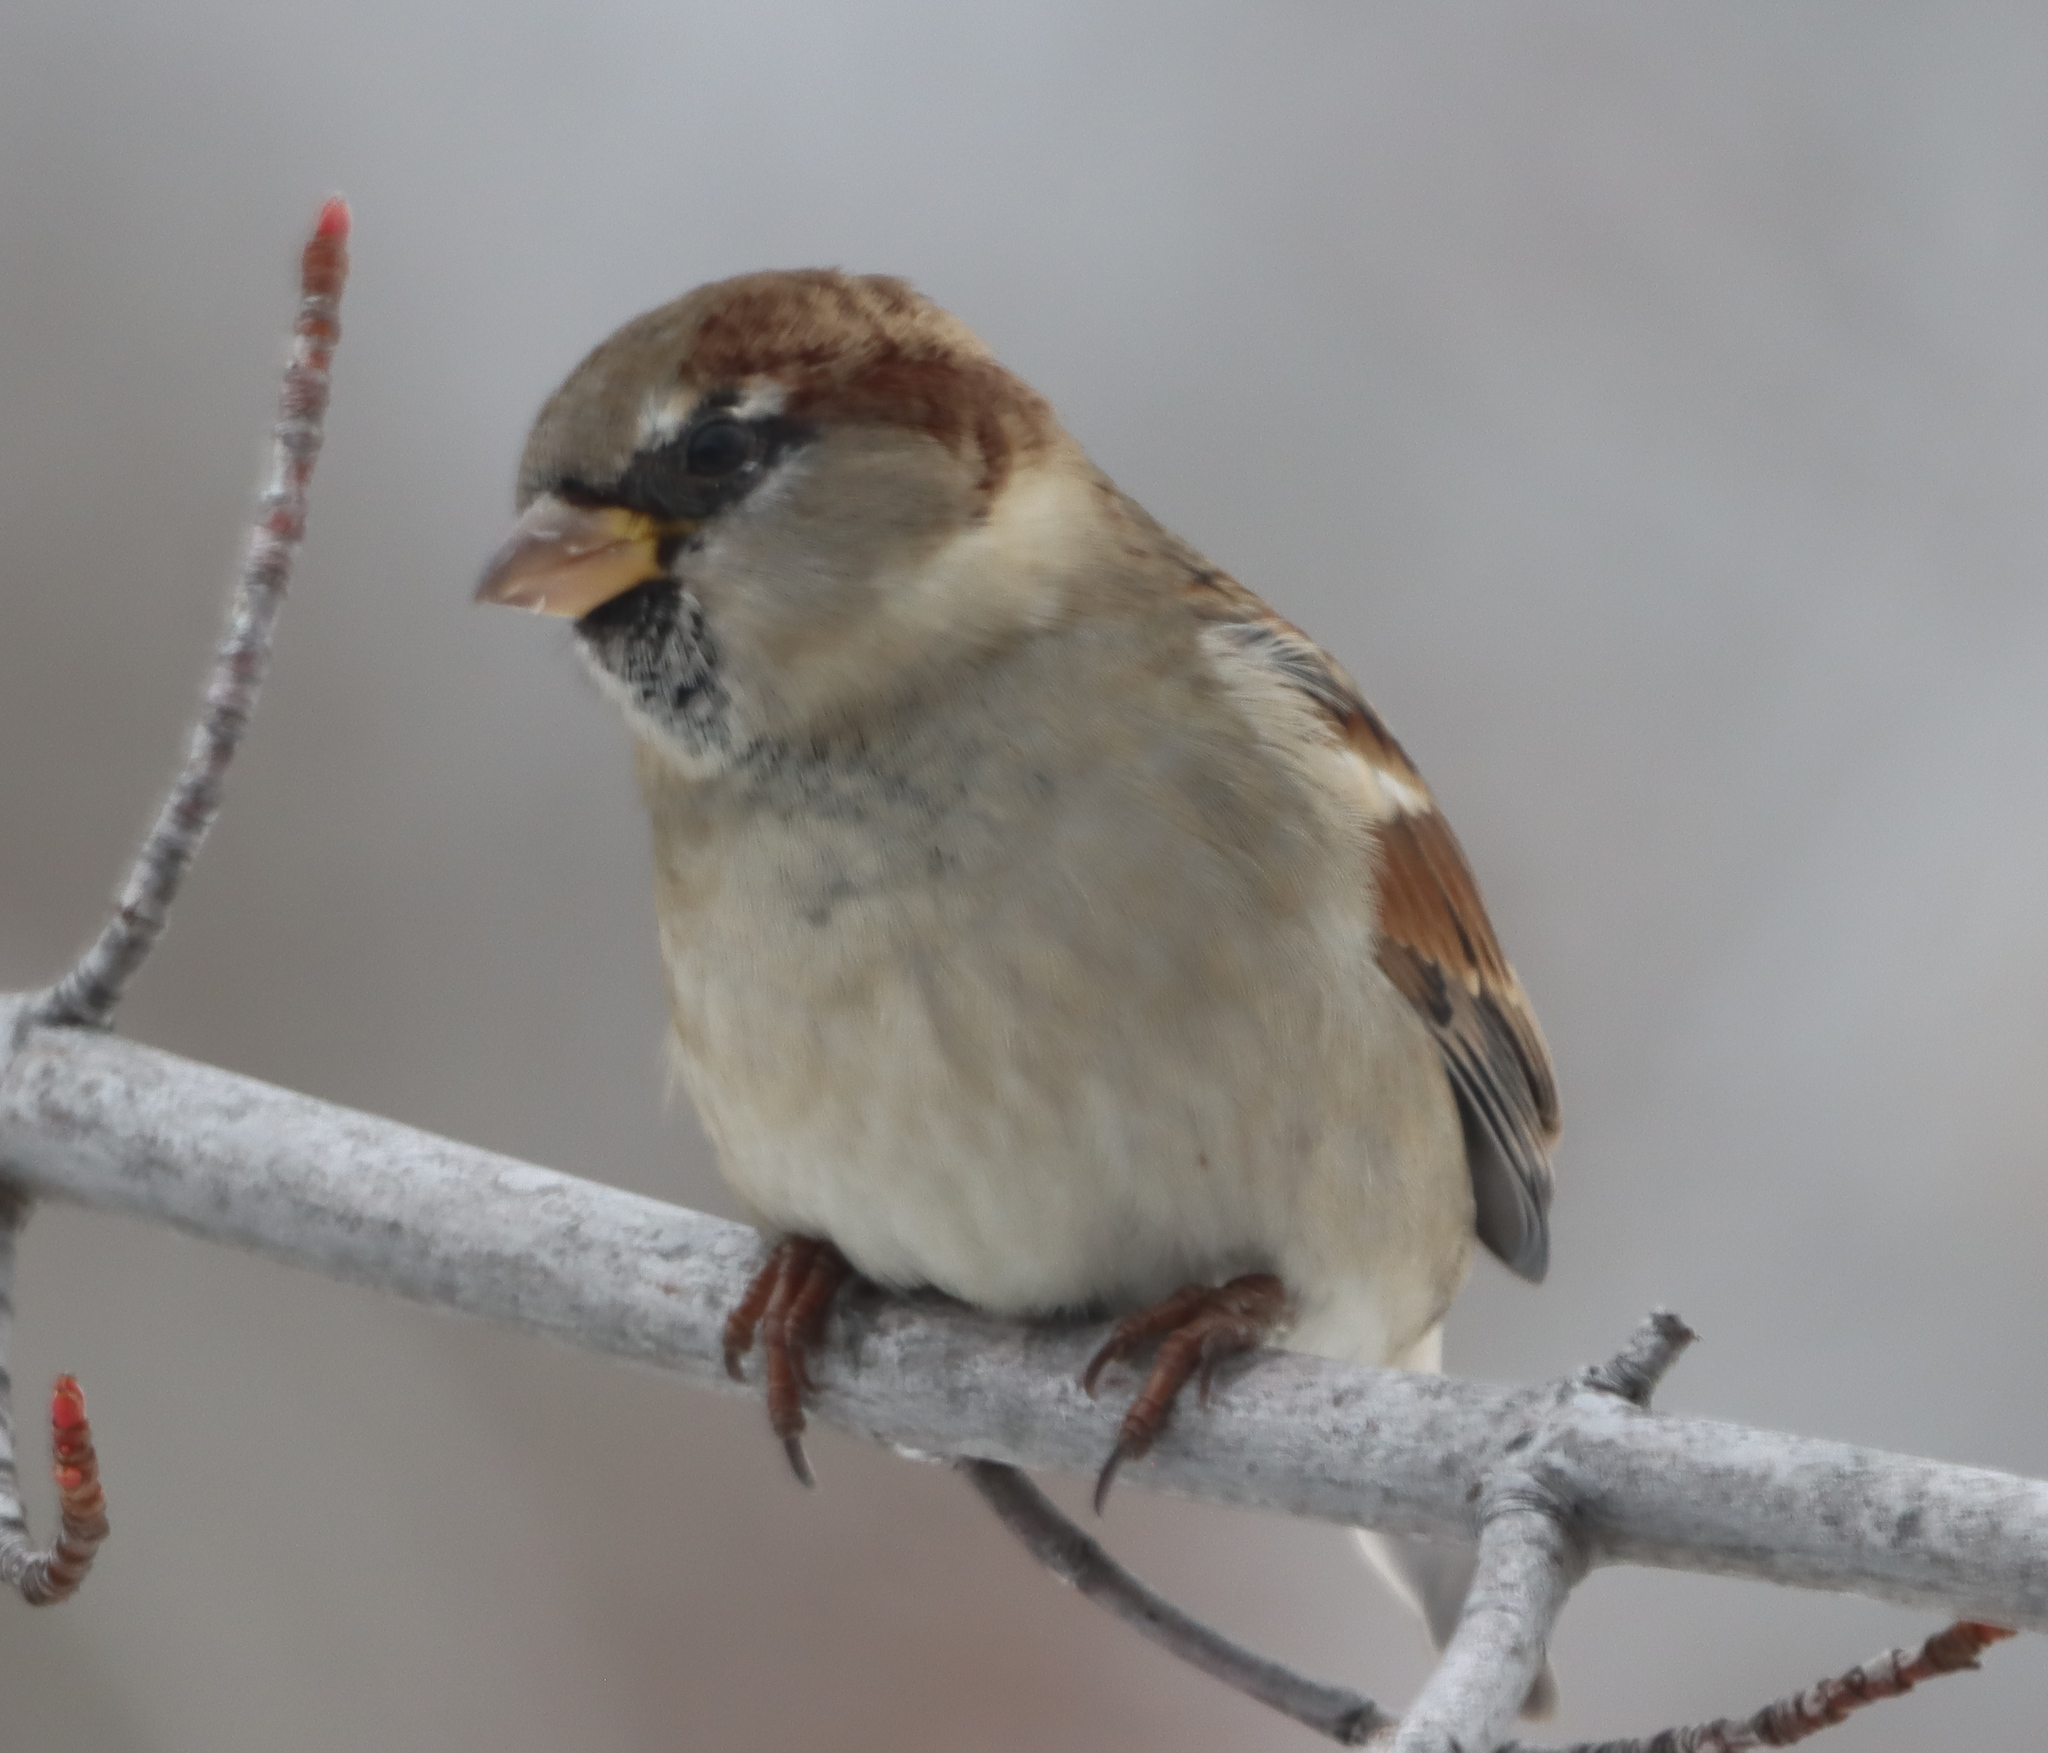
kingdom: Animalia
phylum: Chordata
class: Aves
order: Passeriformes
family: Passeridae
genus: Passer
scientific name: Passer domesticus
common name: House sparrow
